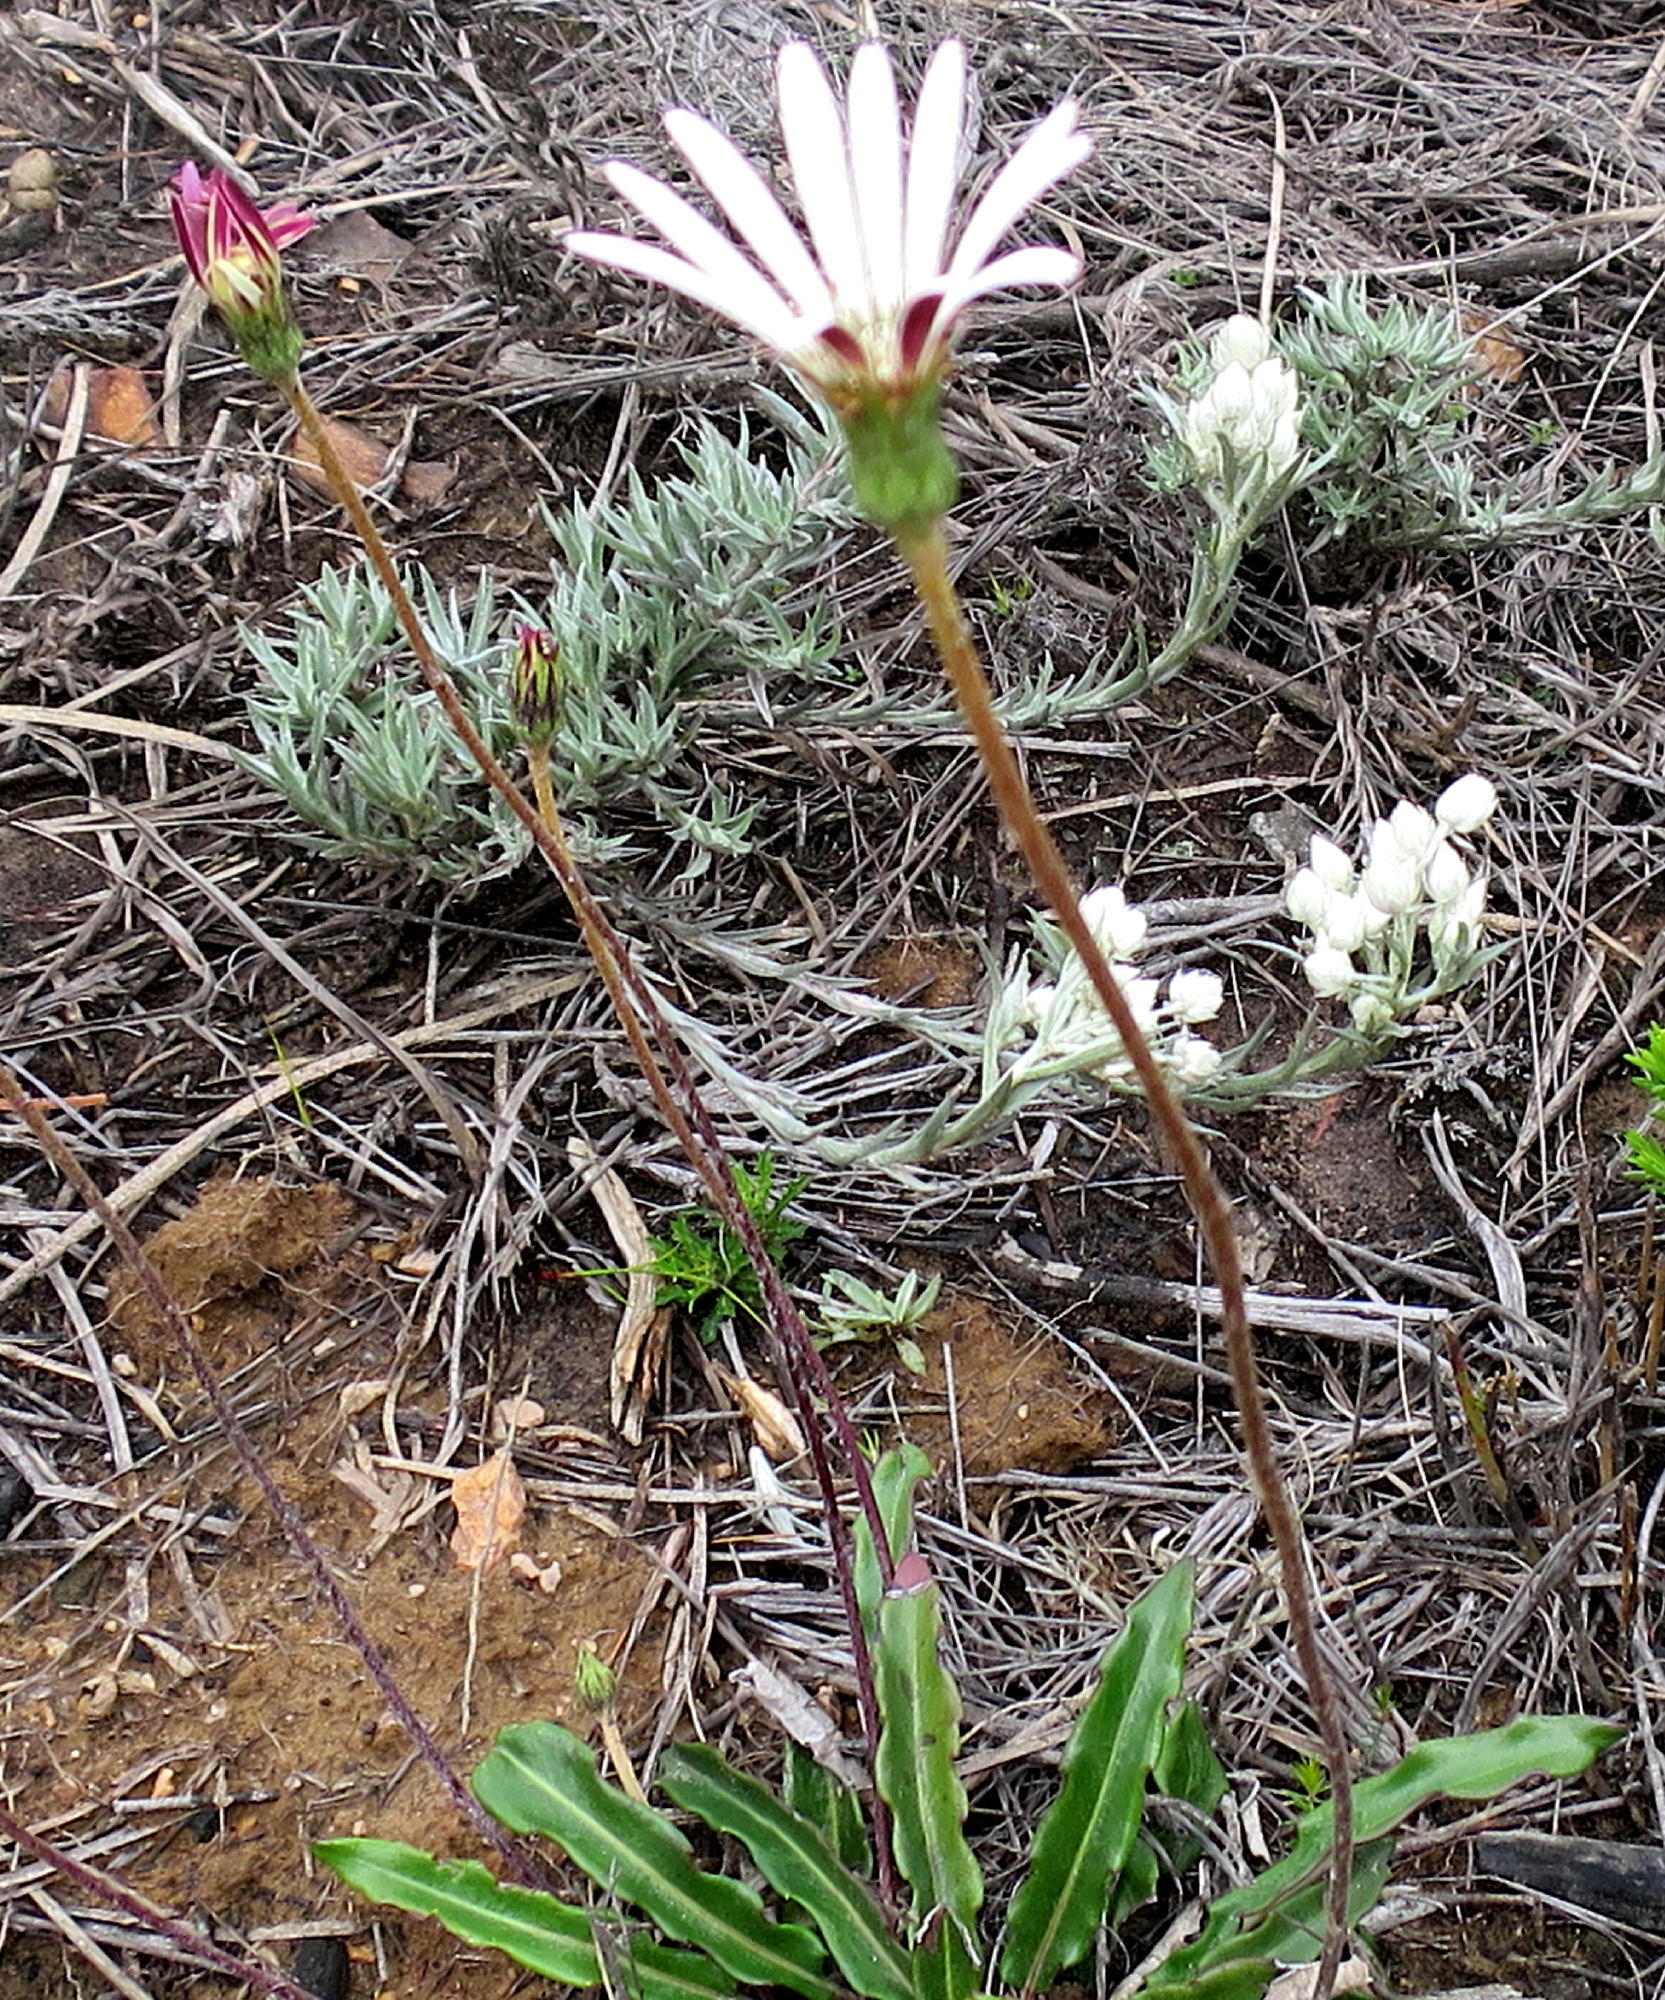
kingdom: Plantae
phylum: Tracheophyta
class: Magnoliopsida
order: Asterales
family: Asteraceae
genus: Gerbera
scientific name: Gerbera serrata
